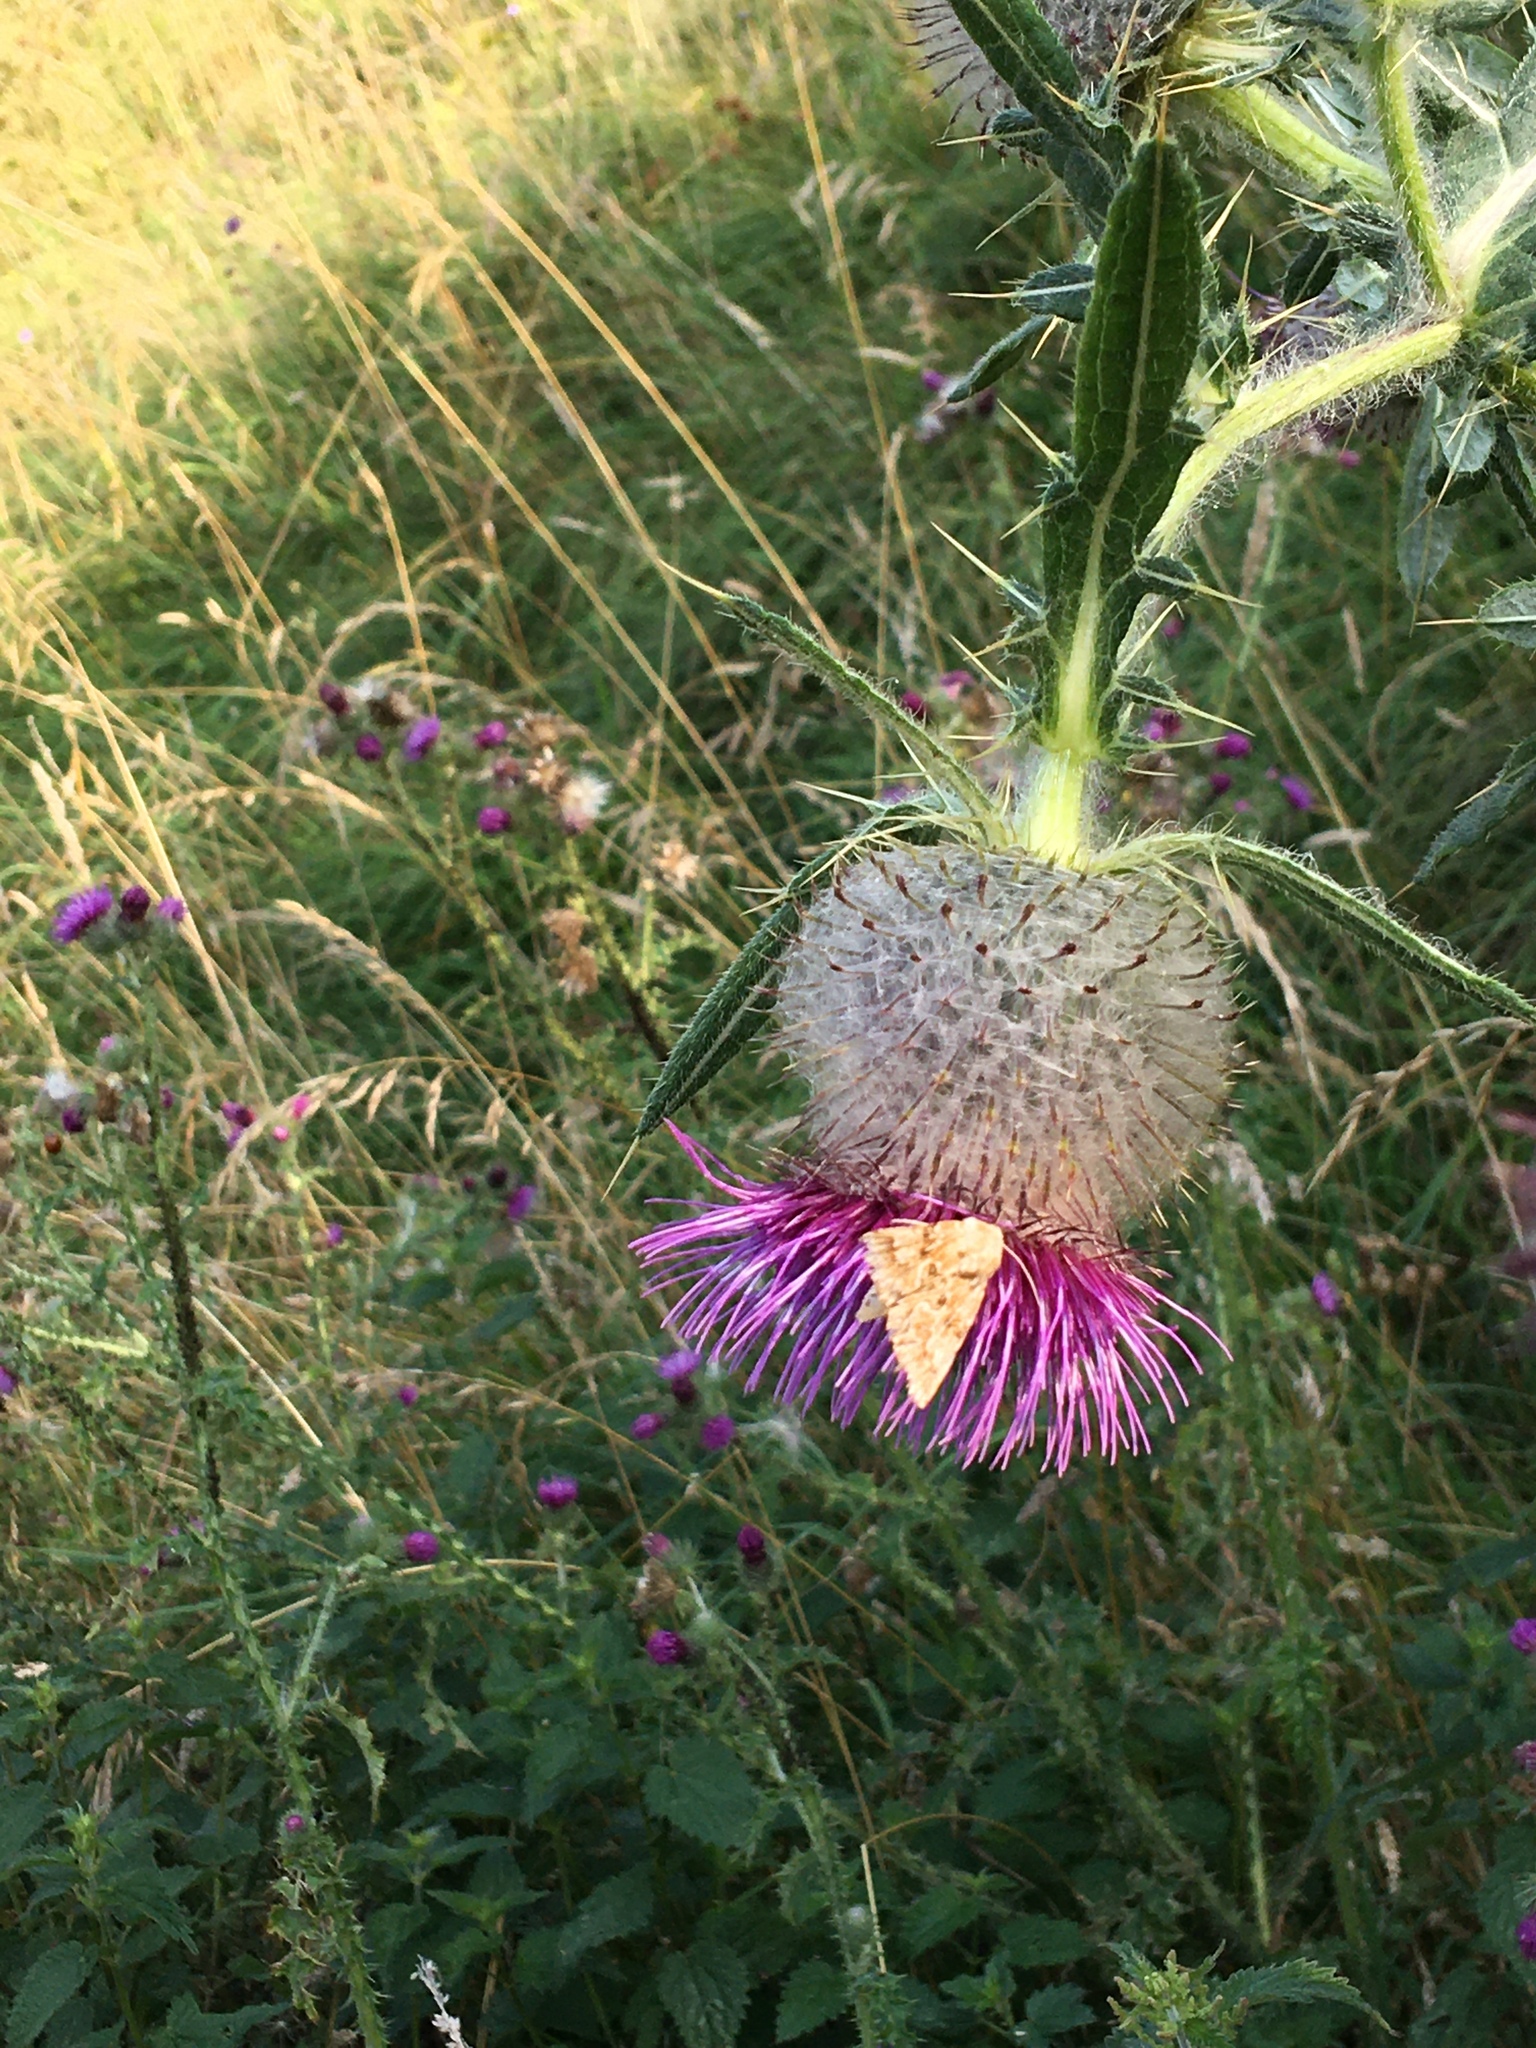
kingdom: Animalia
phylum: Arthropoda
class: Insecta
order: Lepidoptera
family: Noctuidae
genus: Eremobia
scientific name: Eremobia ochroleuca
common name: Dusky sallow
